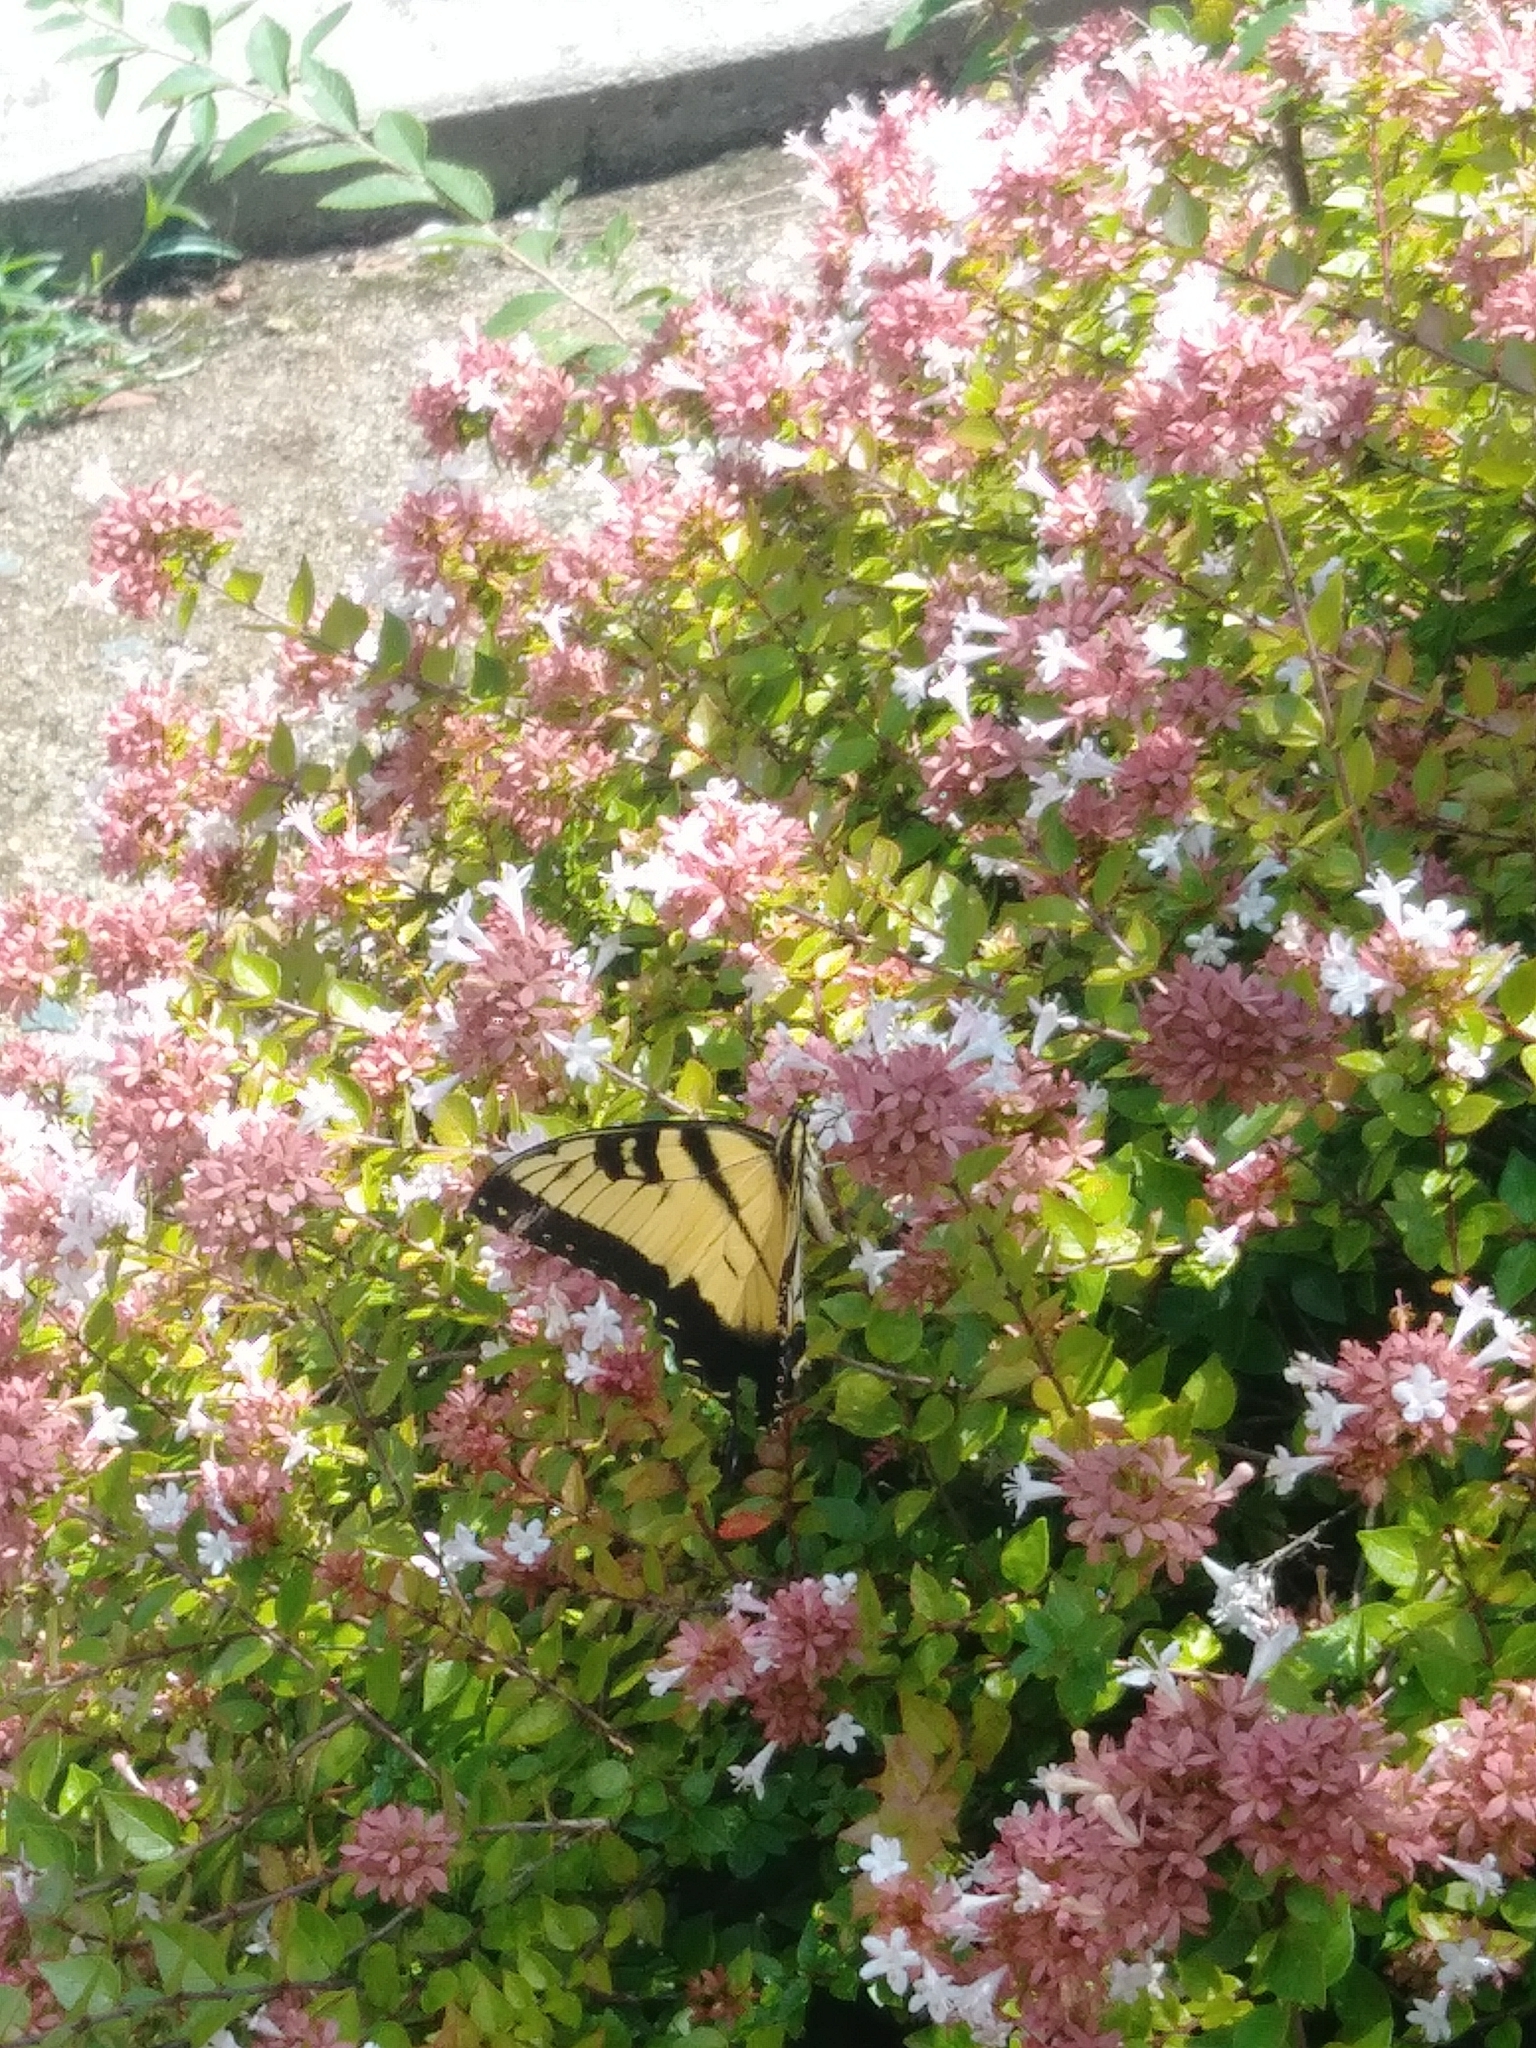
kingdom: Animalia
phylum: Arthropoda
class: Insecta
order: Lepidoptera
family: Papilionidae
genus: Papilio
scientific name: Papilio glaucus
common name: Tiger swallowtail
